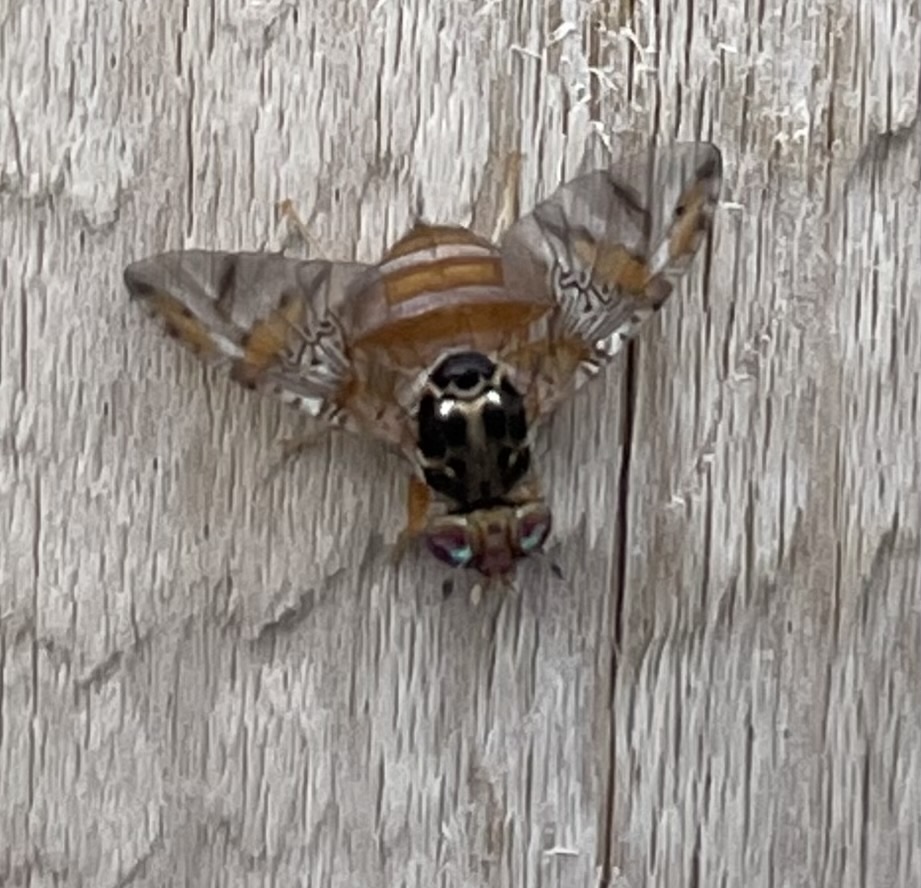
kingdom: Animalia
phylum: Arthropoda
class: Insecta
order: Diptera
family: Tephritidae
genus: Ceratitis
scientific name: Ceratitis capitata
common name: Mediterranean fruit fly
